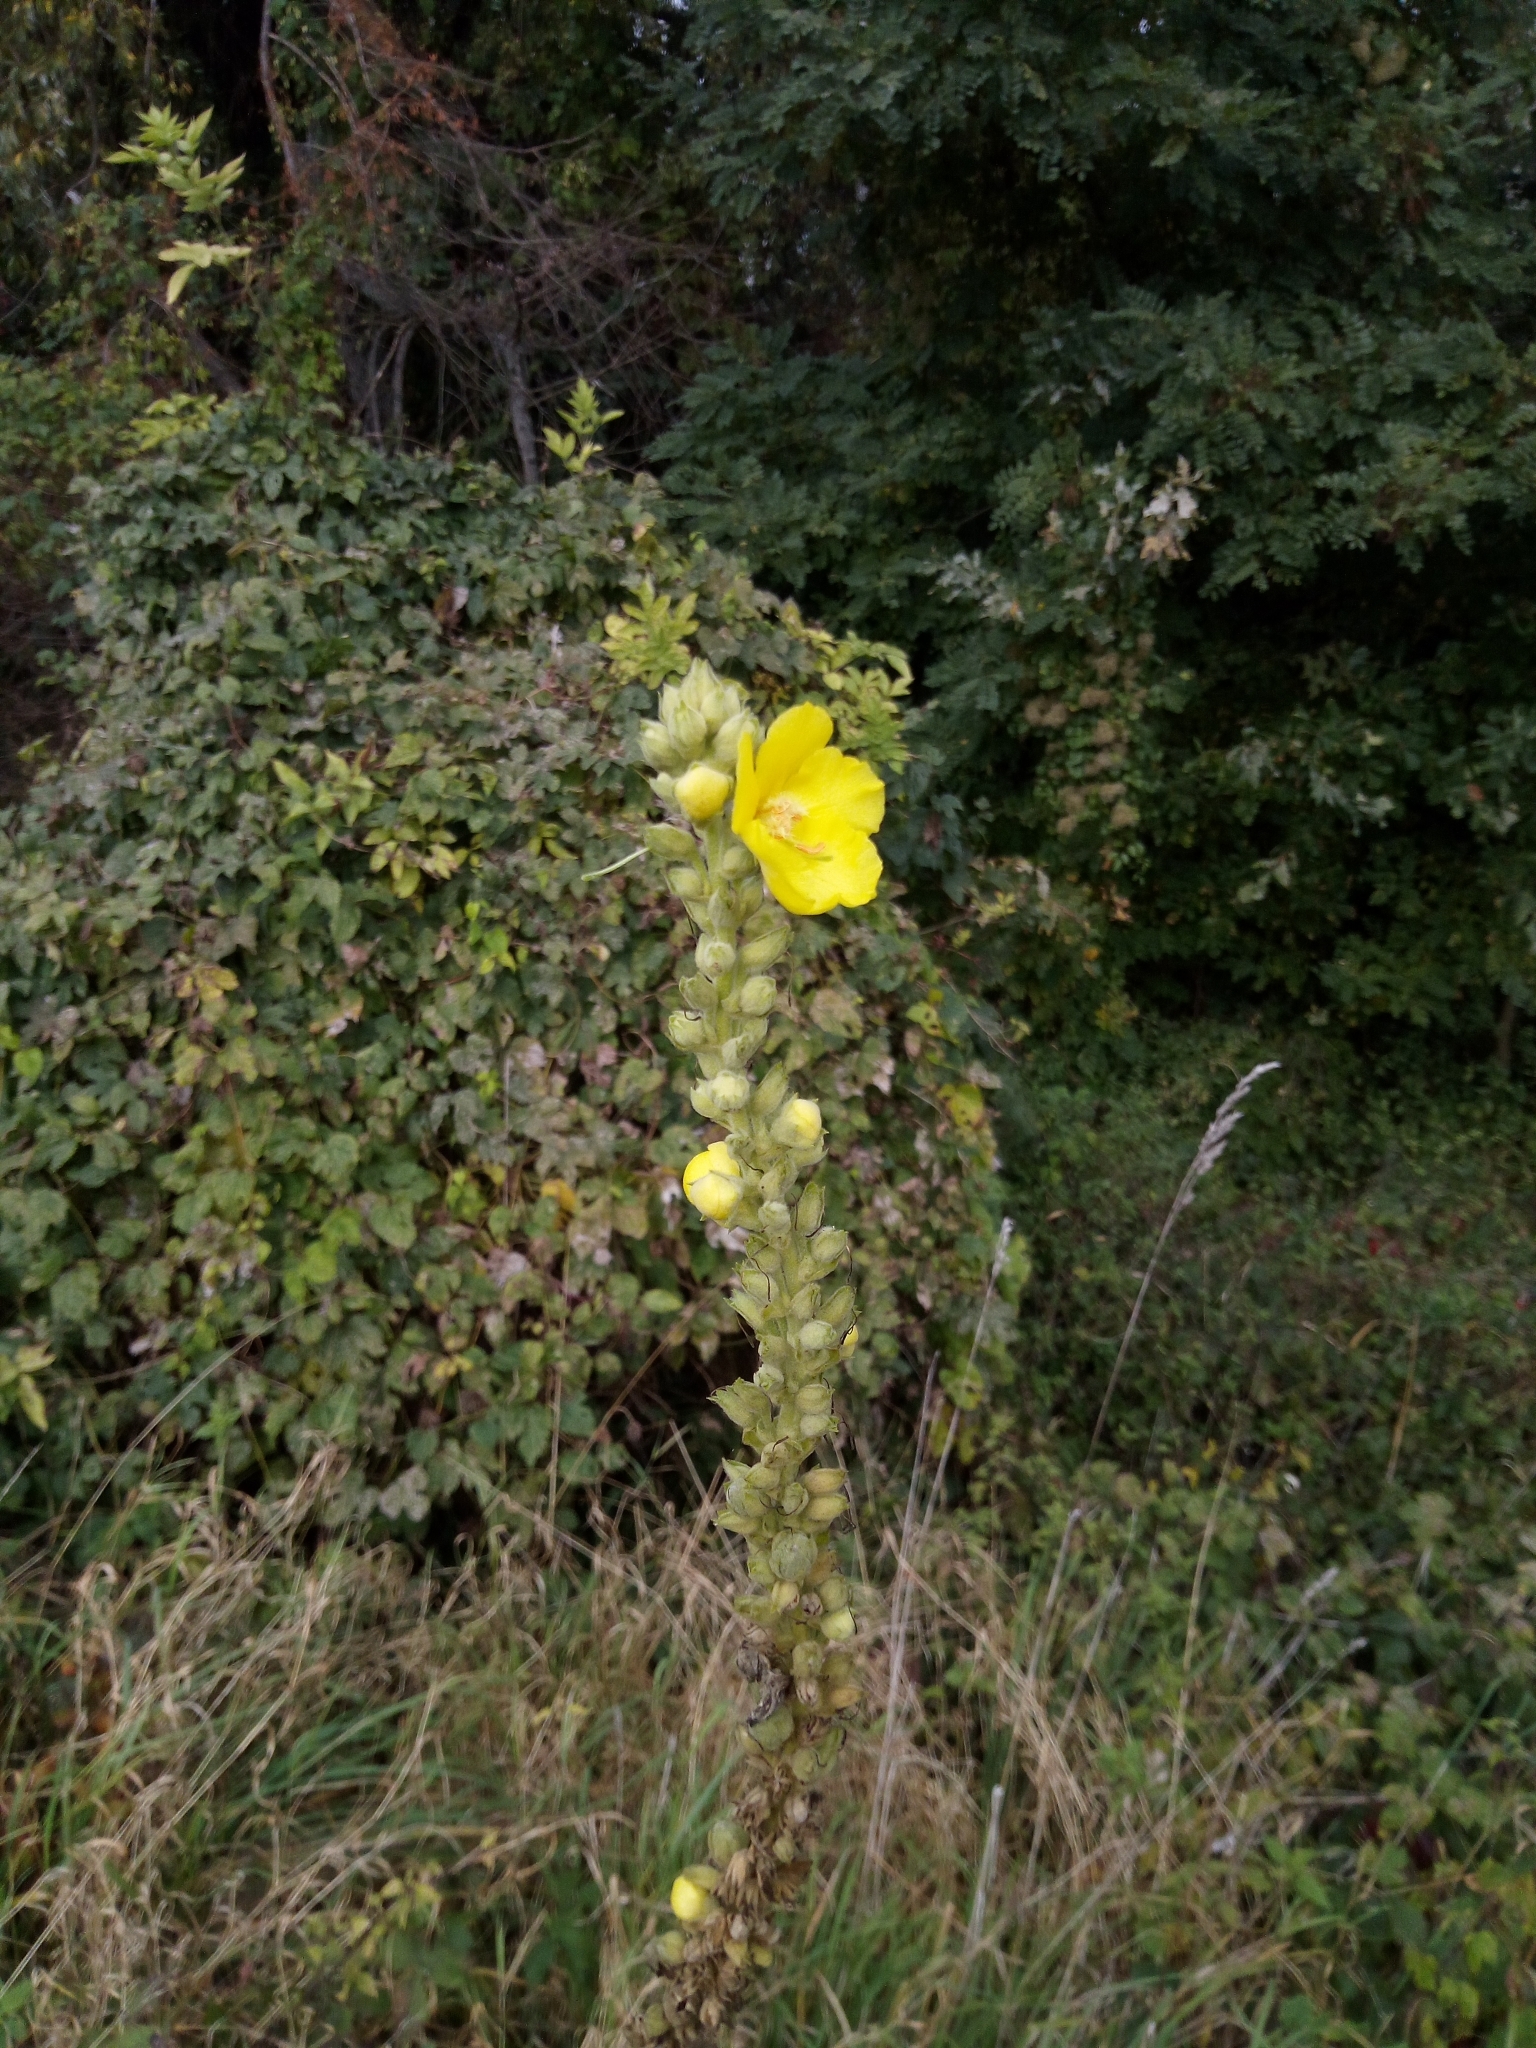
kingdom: Plantae
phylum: Tracheophyta
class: Magnoliopsida
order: Lamiales
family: Scrophulariaceae
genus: Verbascum
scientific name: Verbascum phlomoides
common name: Orange mullein
